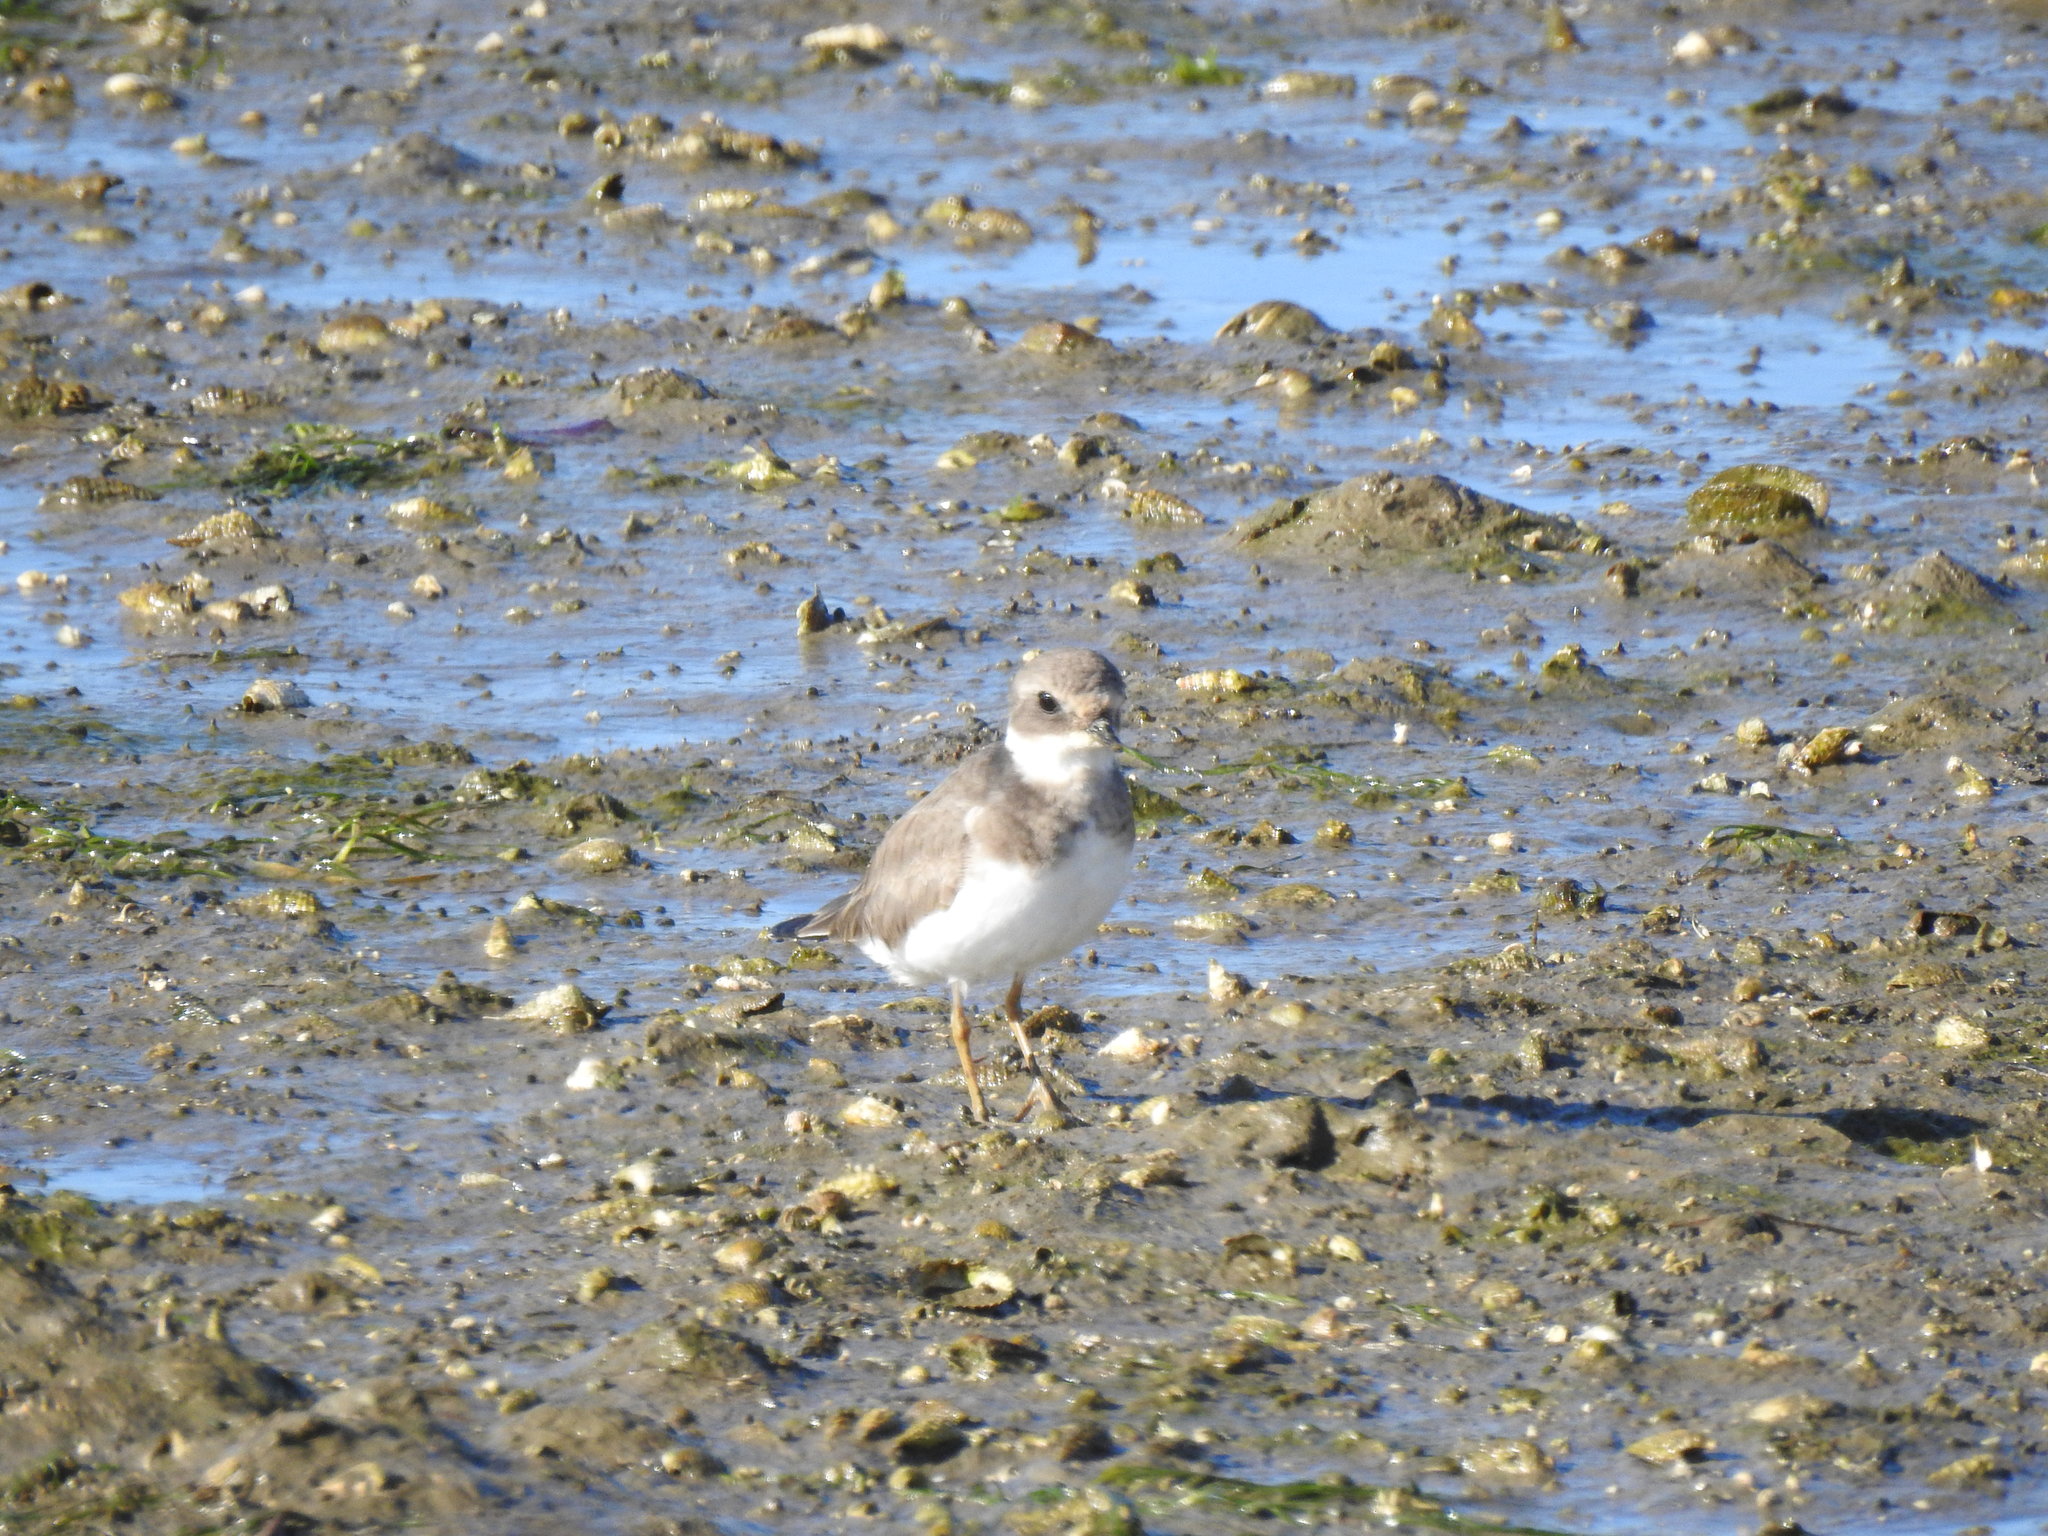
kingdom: Animalia
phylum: Chordata
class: Aves
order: Charadriiformes
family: Charadriidae
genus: Charadrius
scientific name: Charadrius hiaticula
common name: Common ringed plover
